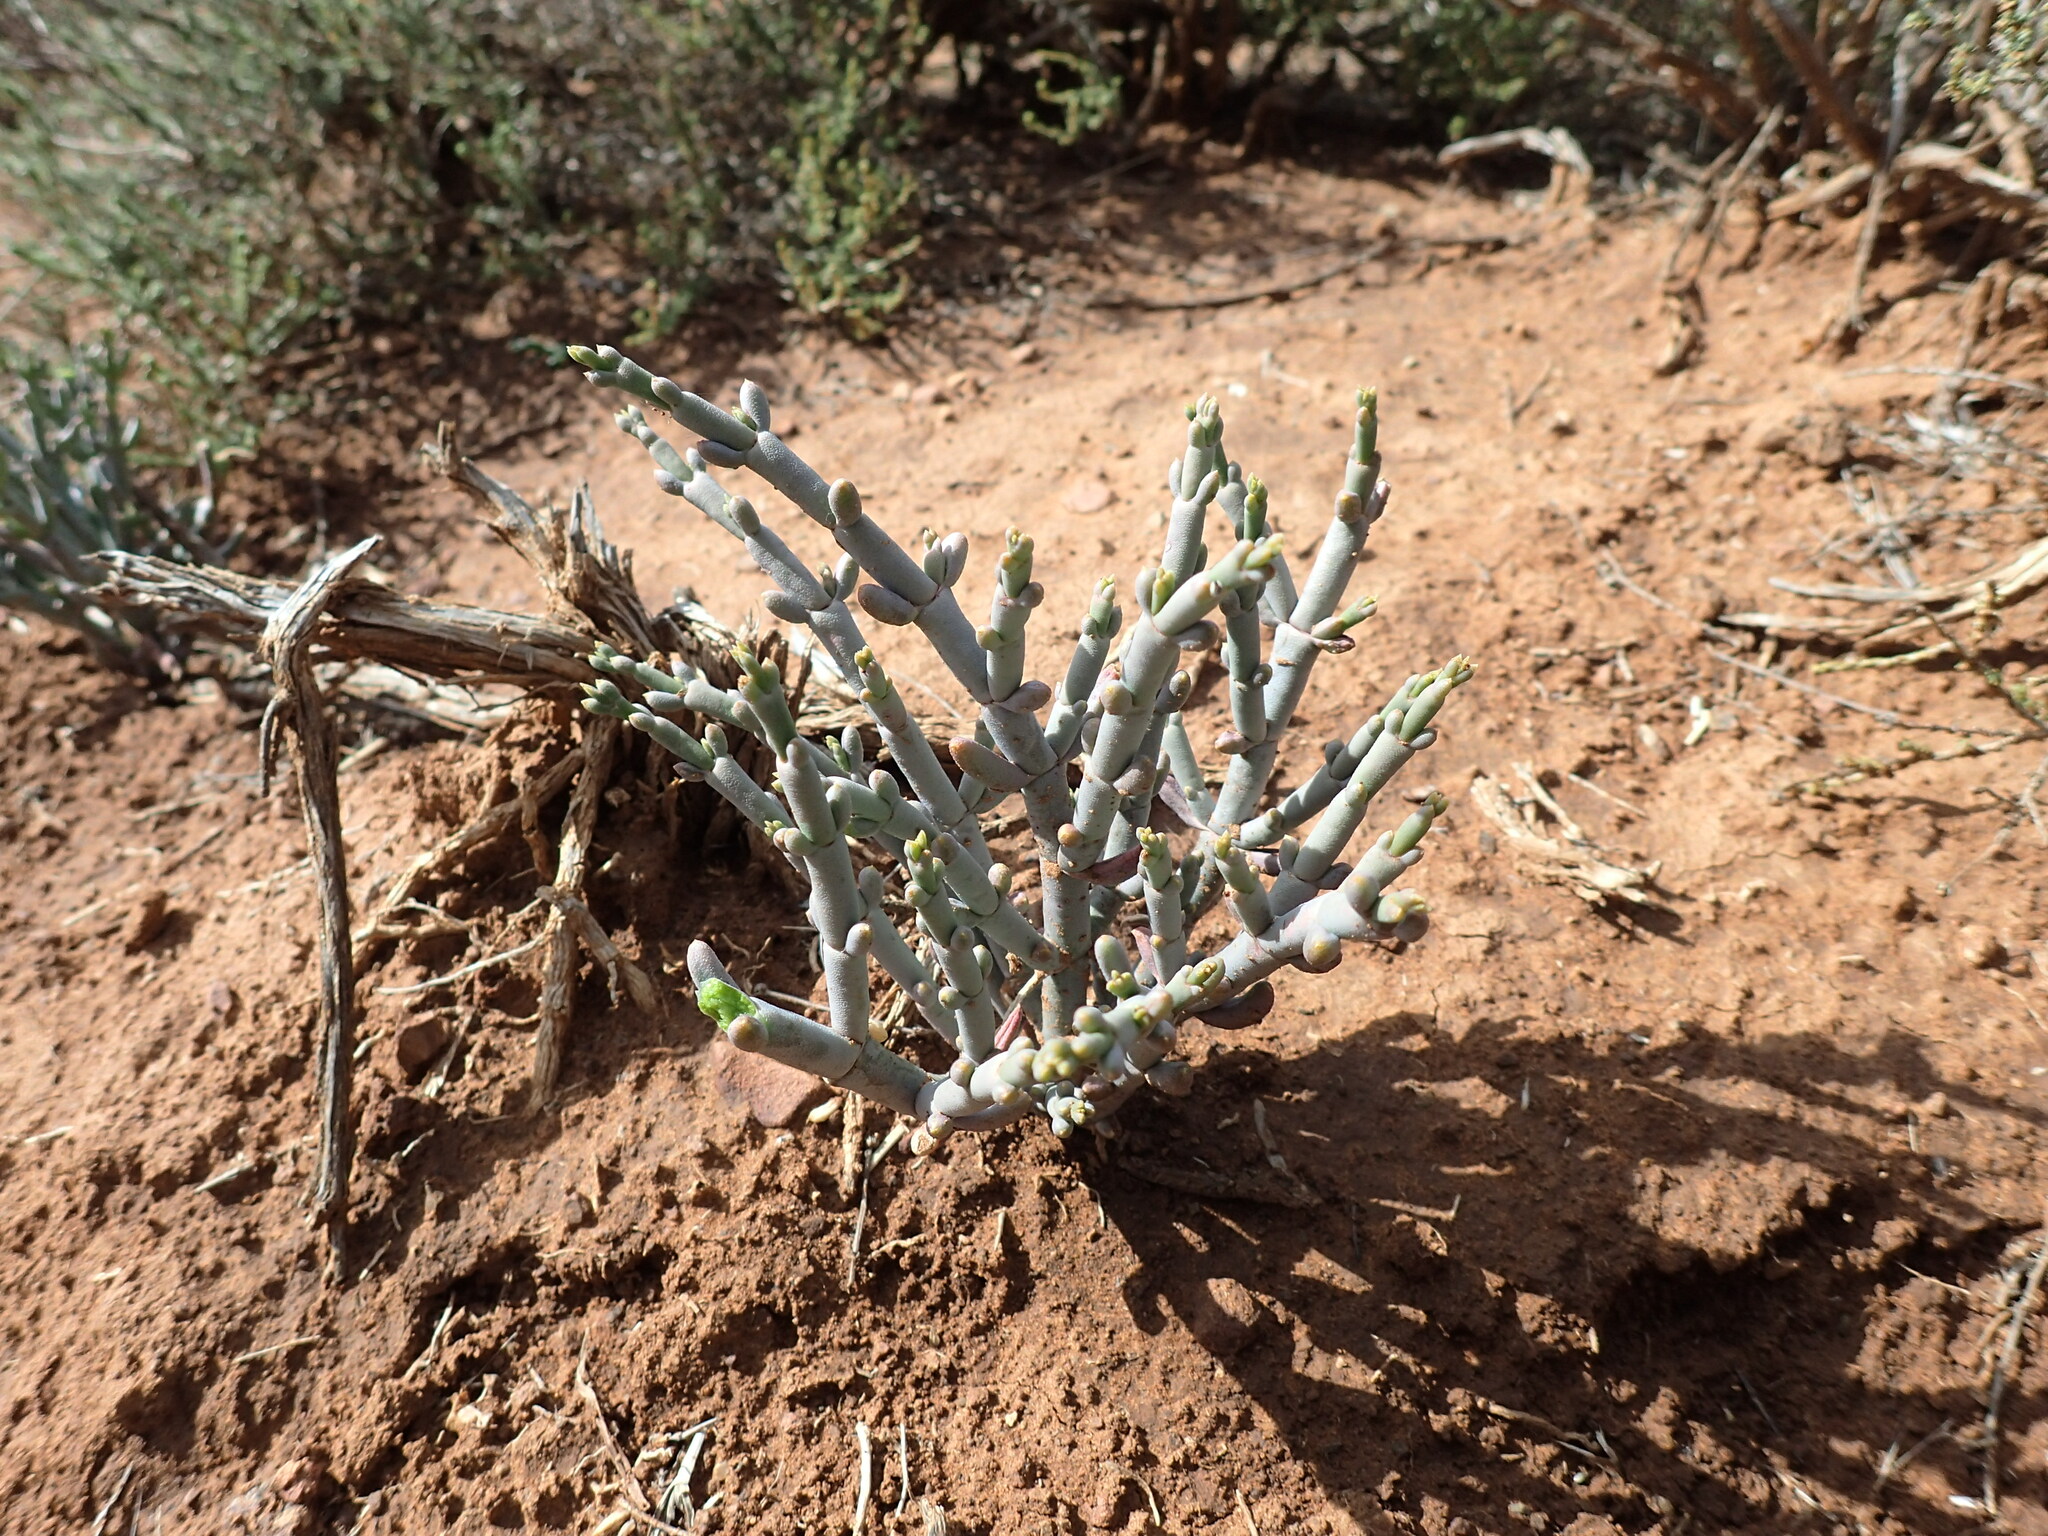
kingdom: Plantae
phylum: Tracheophyta
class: Magnoliopsida
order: Caryophyllales
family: Aizoaceae
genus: Mesembryanthemum
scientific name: Mesembryanthemum granulicaule
